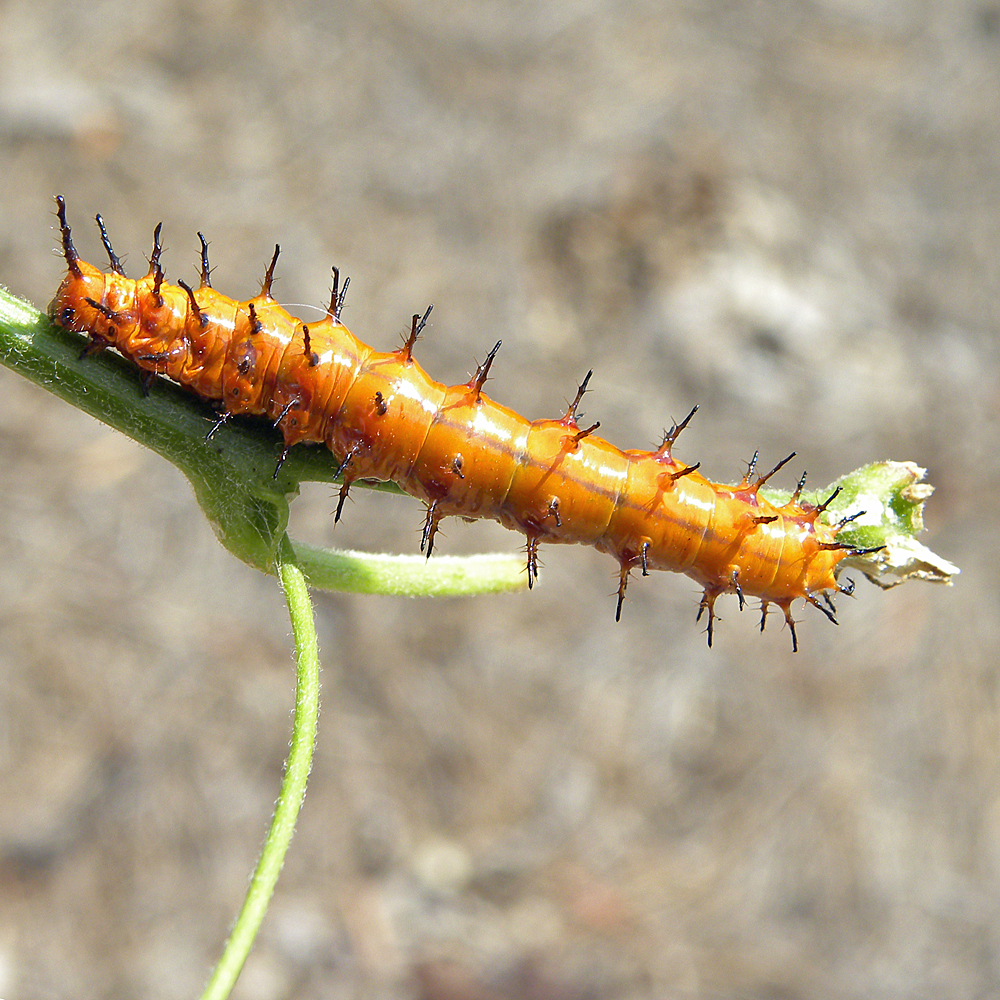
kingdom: Animalia
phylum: Arthropoda
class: Insecta
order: Lepidoptera
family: Nymphalidae
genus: Dione
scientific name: Dione vanillae
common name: Gulf fritillary
